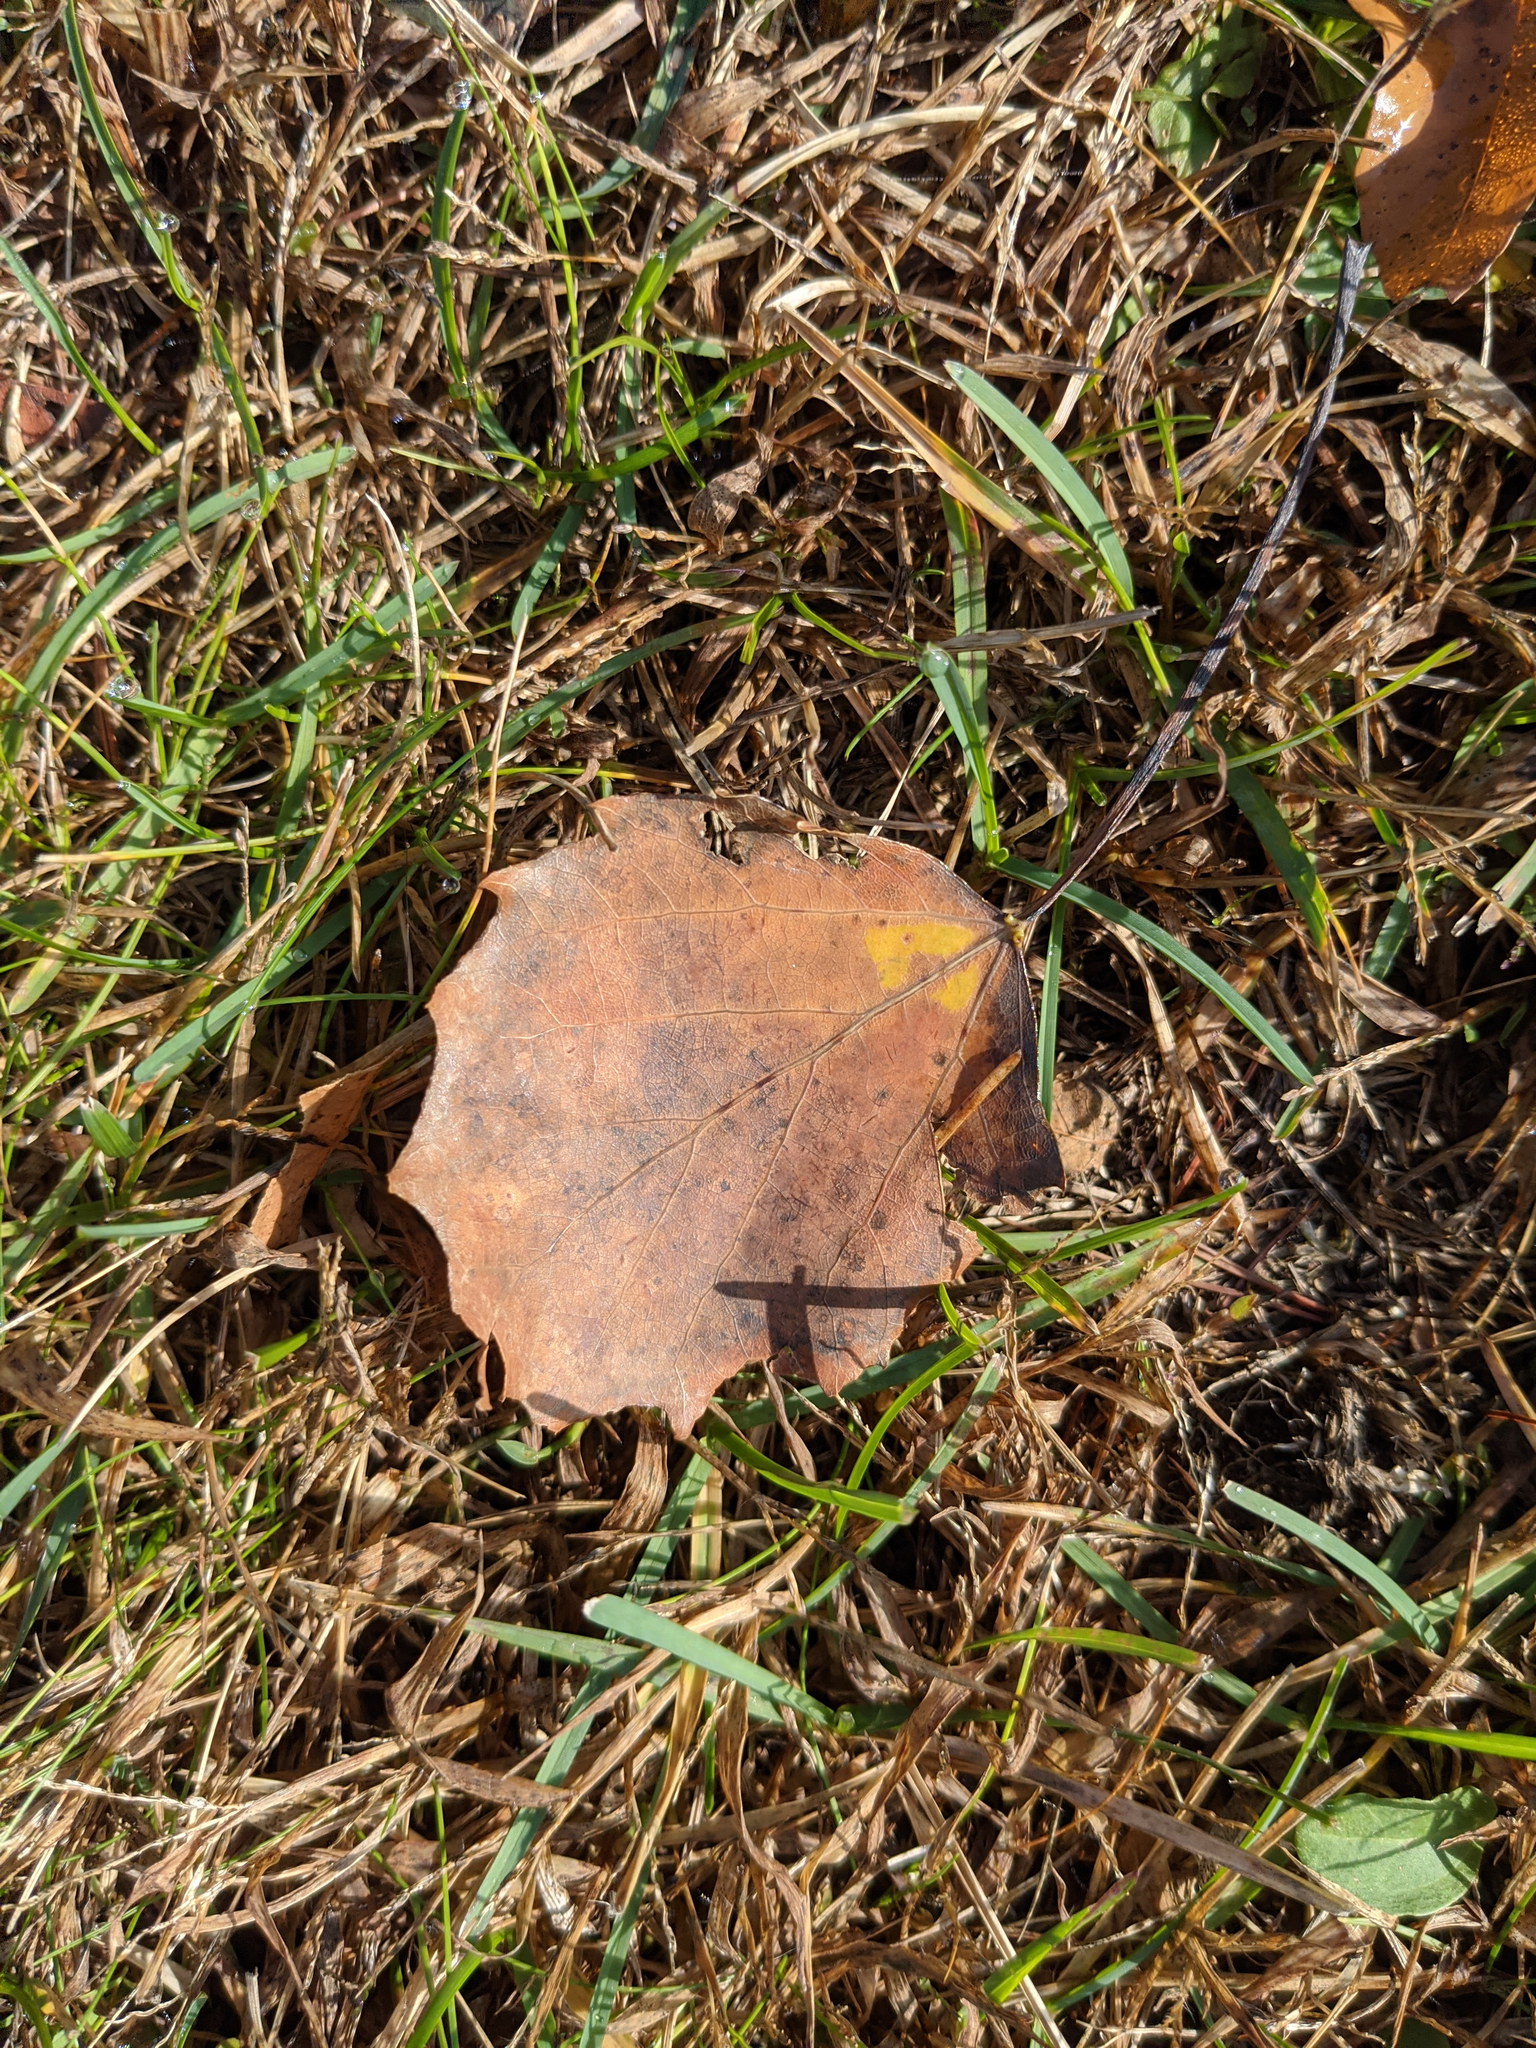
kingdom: Plantae
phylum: Tracheophyta
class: Magnoliopsida
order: Malpighiales
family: Salicaceae
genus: Populus
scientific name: Populus grandidentata
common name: Bigtooth aspen
